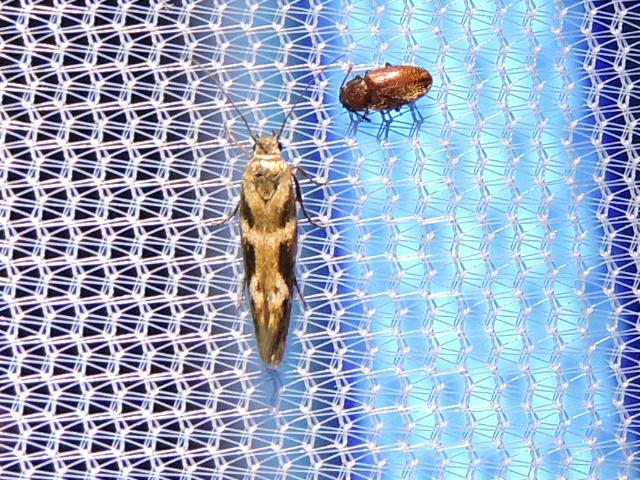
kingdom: Animalia
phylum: Arthropoda
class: Insecta
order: Lepidoptera
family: Scythrididae
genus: Scythris
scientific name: Scythris trivinctella
